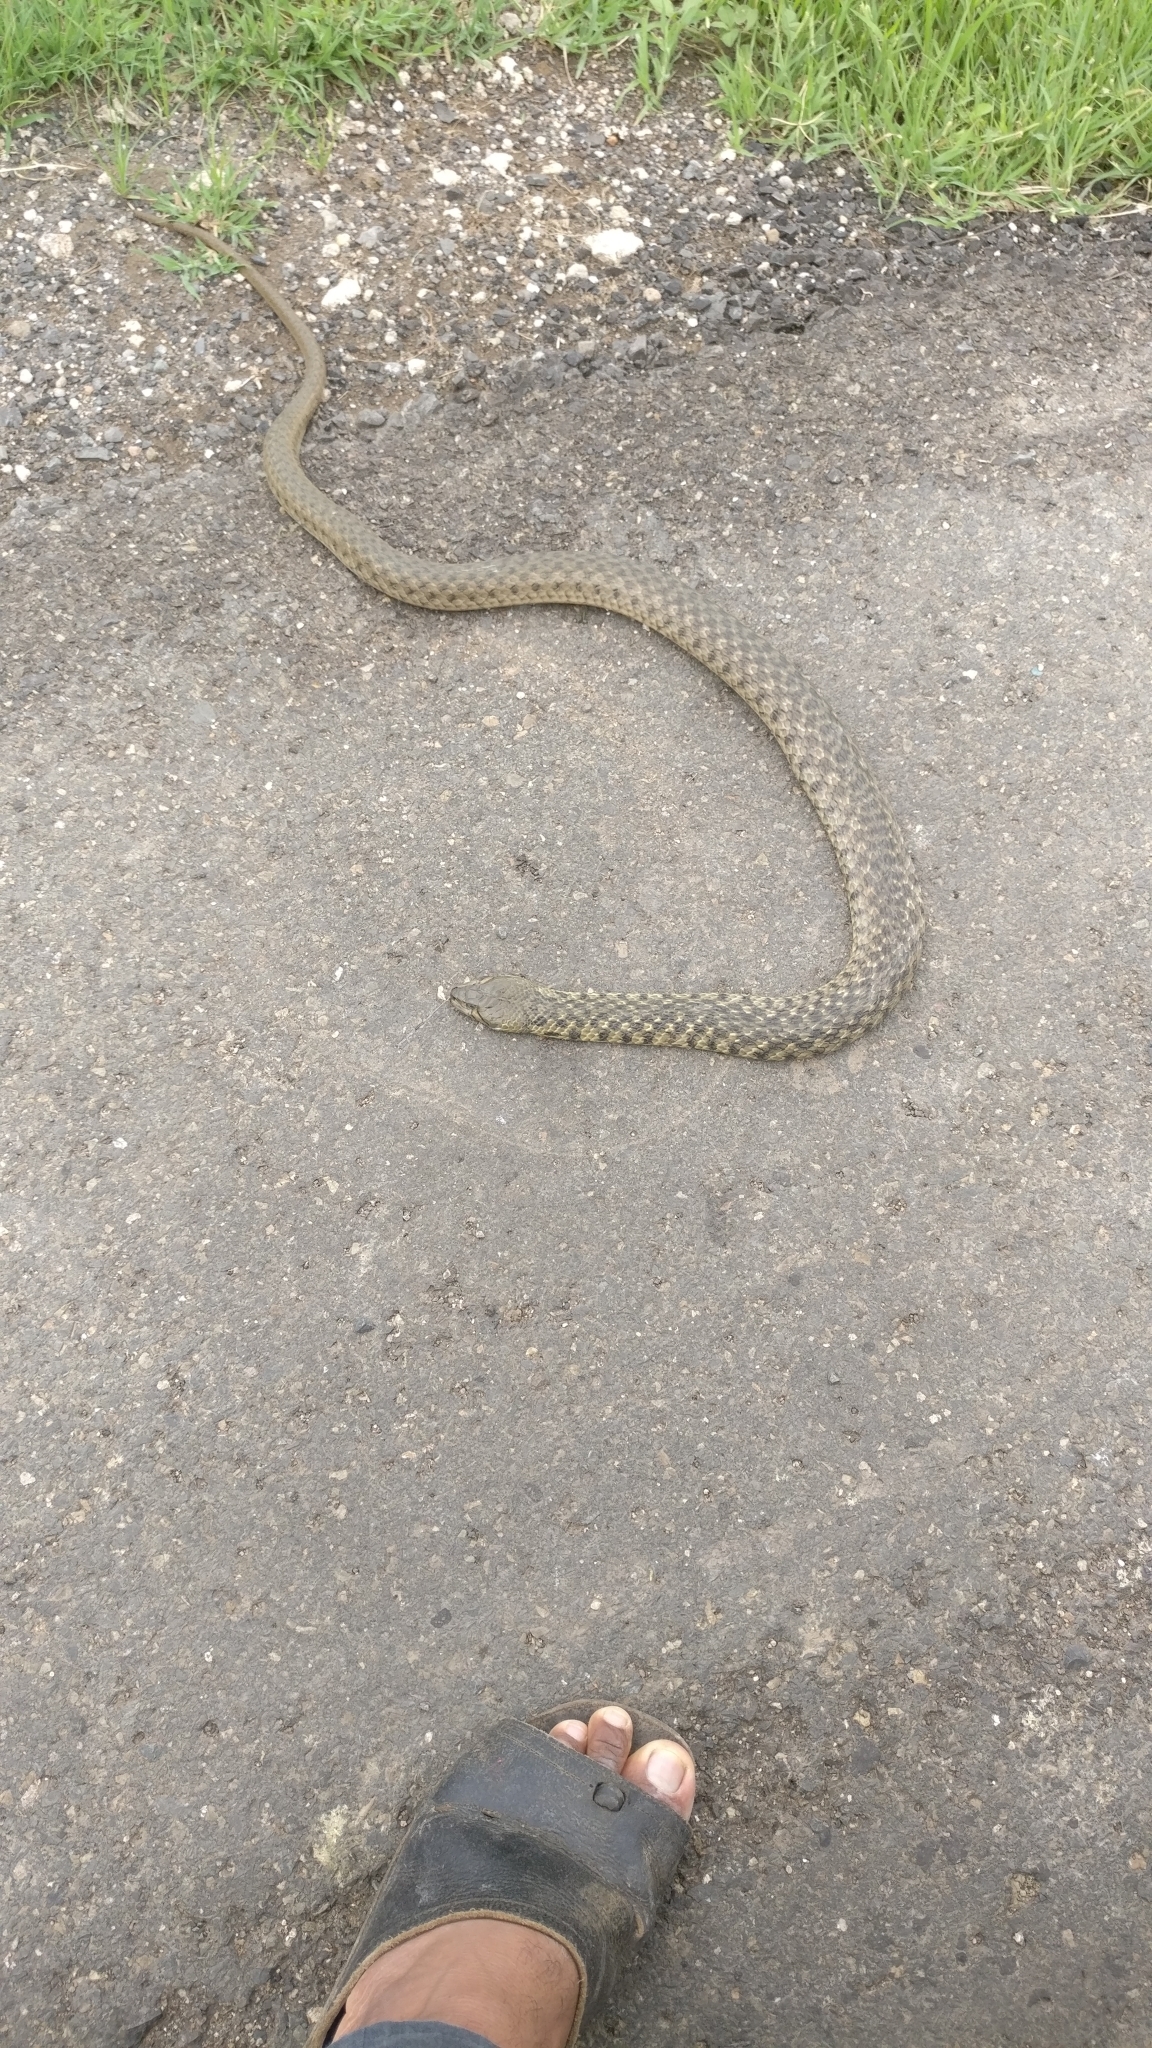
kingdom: Animalia
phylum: Chordata
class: Squamata
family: Colubridae
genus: Fowlea
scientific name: Fowlea piscator
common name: Asiatic water snake
